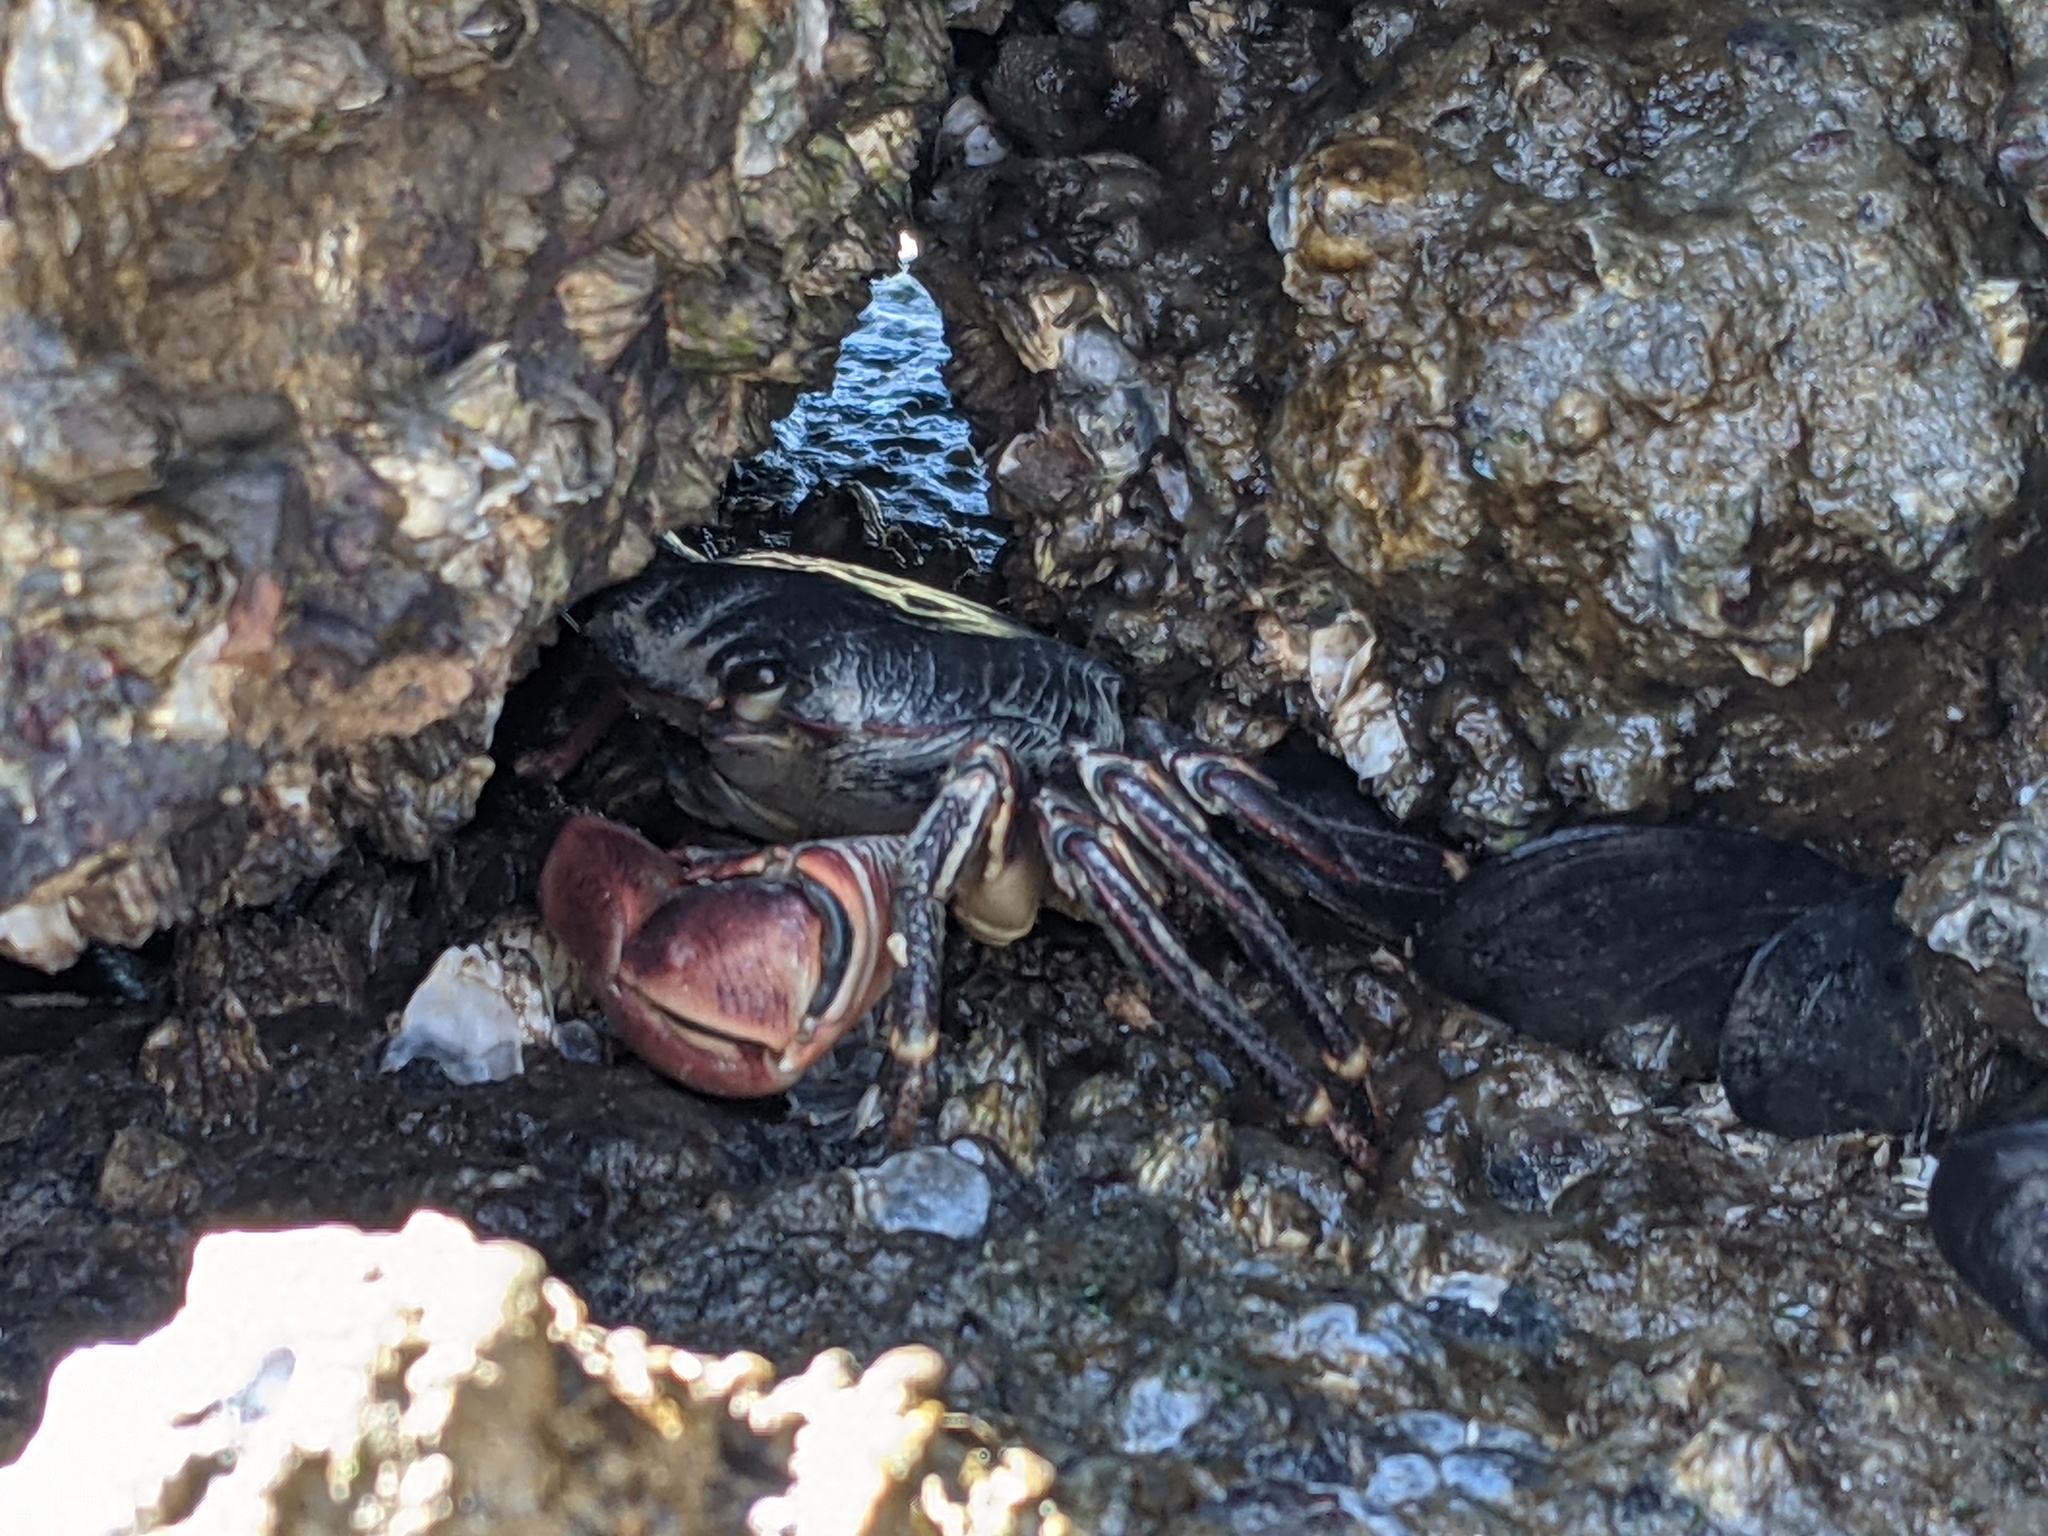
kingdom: Animalia
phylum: Arthropoda
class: Malacostraca
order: Decapoda
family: Grapsidae
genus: Pachygrapsus
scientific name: Pachygrapsus crassipes
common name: Striped shore crab
